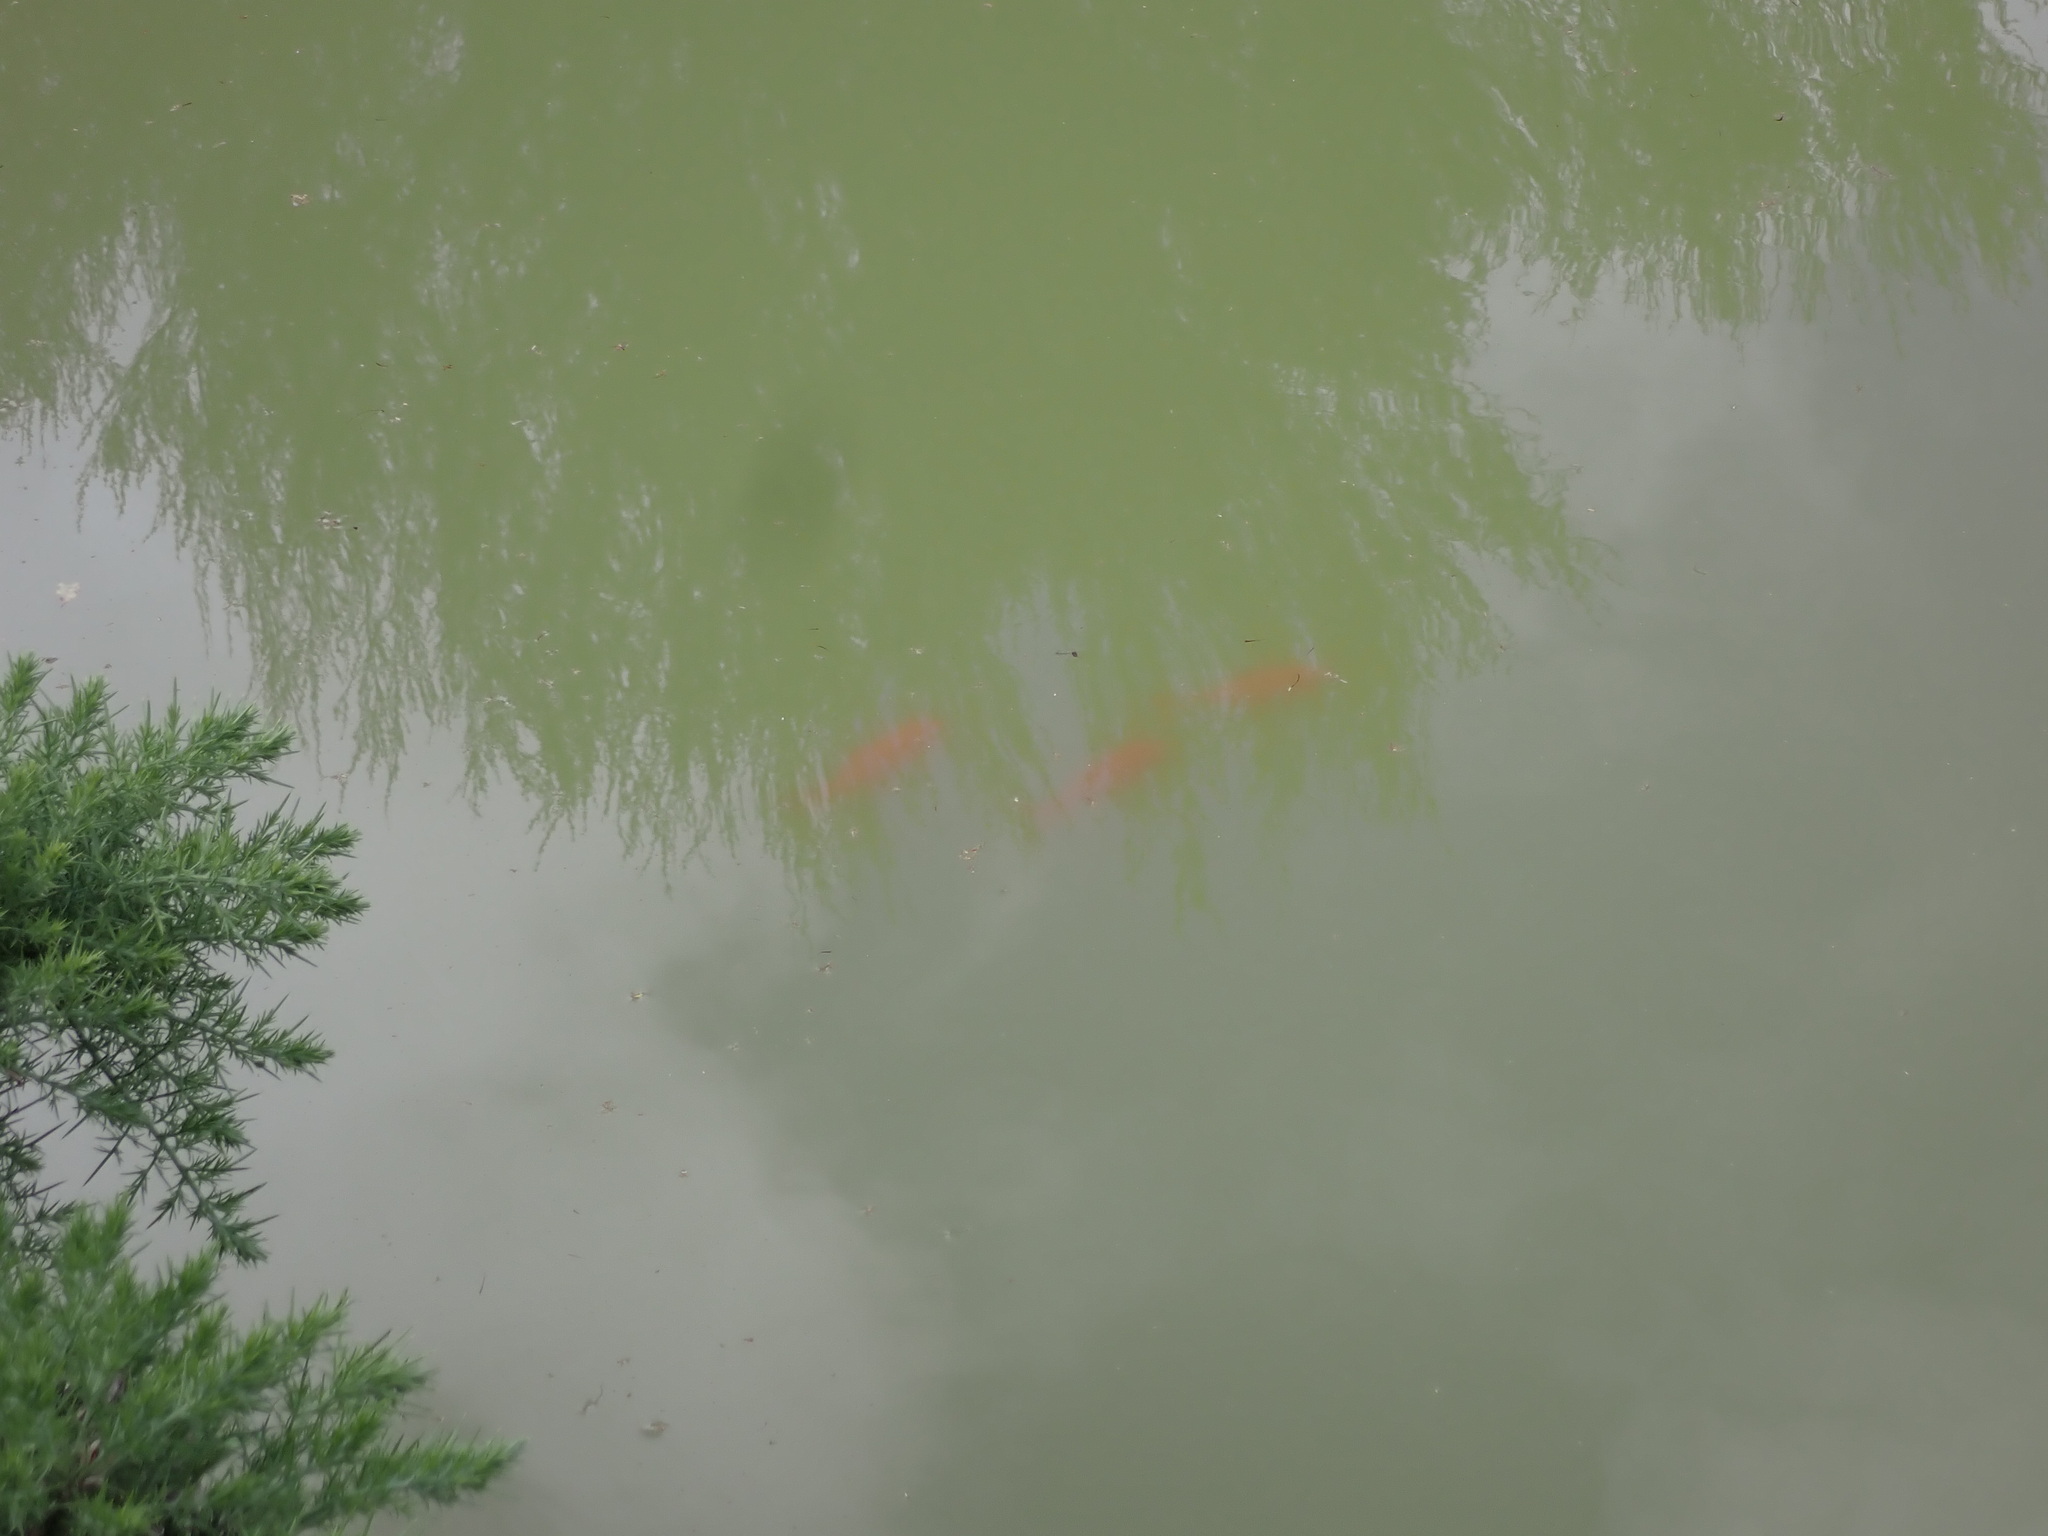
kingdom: Animalia
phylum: Chordata
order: Cypriniformes
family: Cyprinidae
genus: Carassius
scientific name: Carassius auratus
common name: Goldfish
